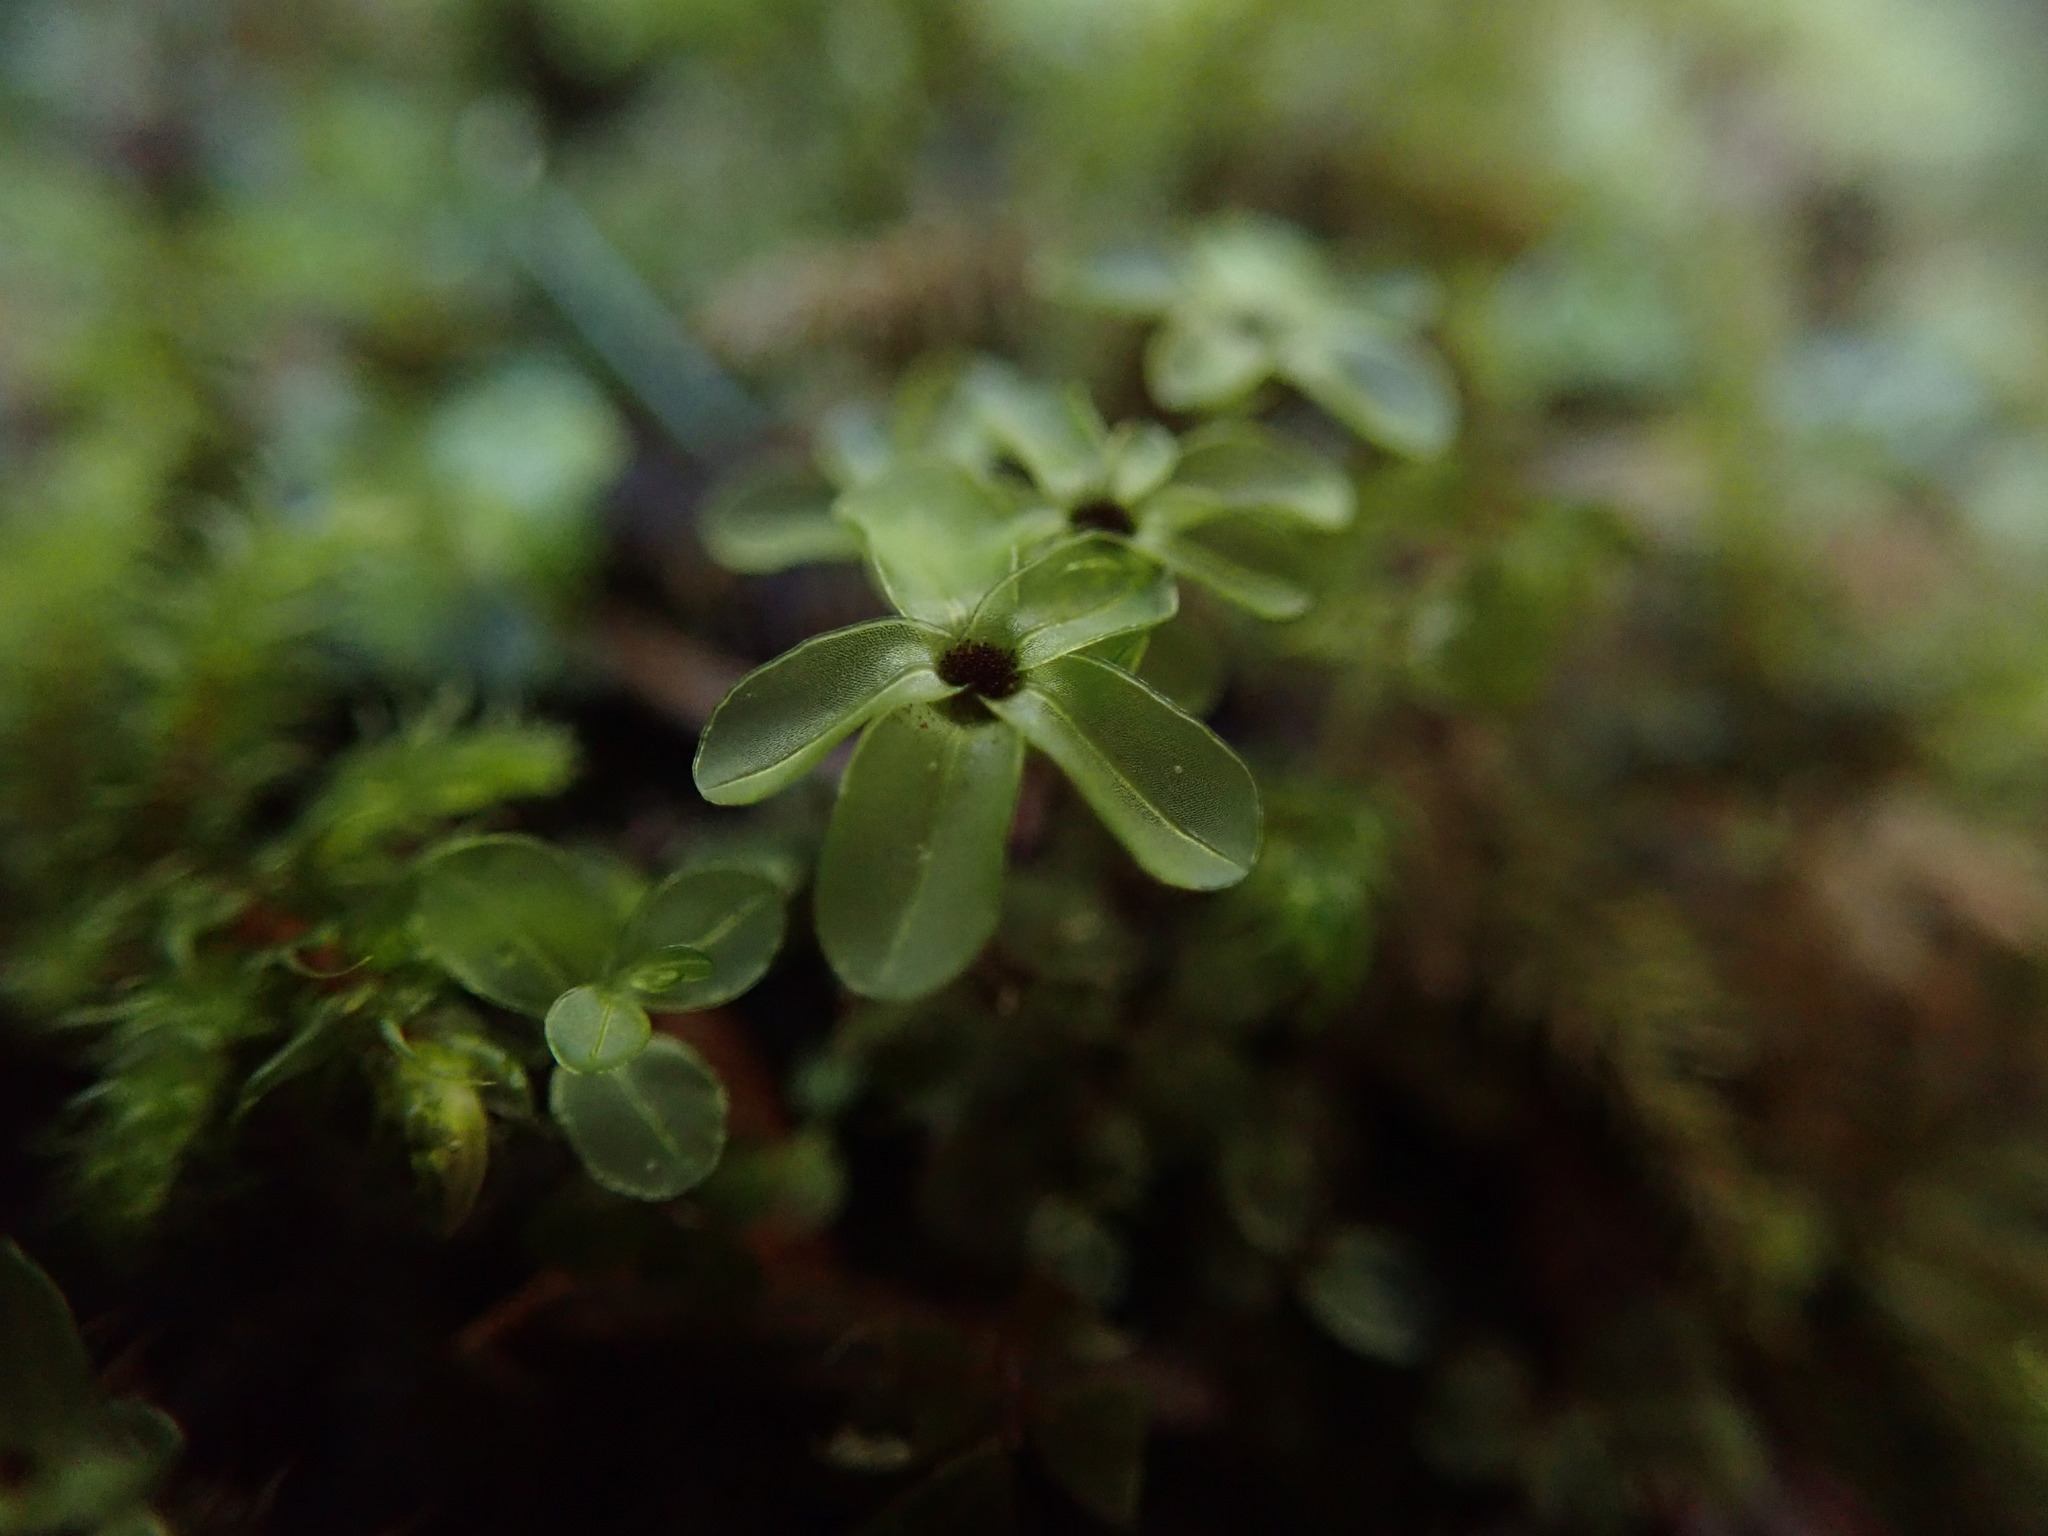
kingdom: Plantae
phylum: Bryophyta
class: Bryopsida
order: Bryales
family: Mniaceae
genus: Rhizomnium
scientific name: Rhizomnium glabrescens
